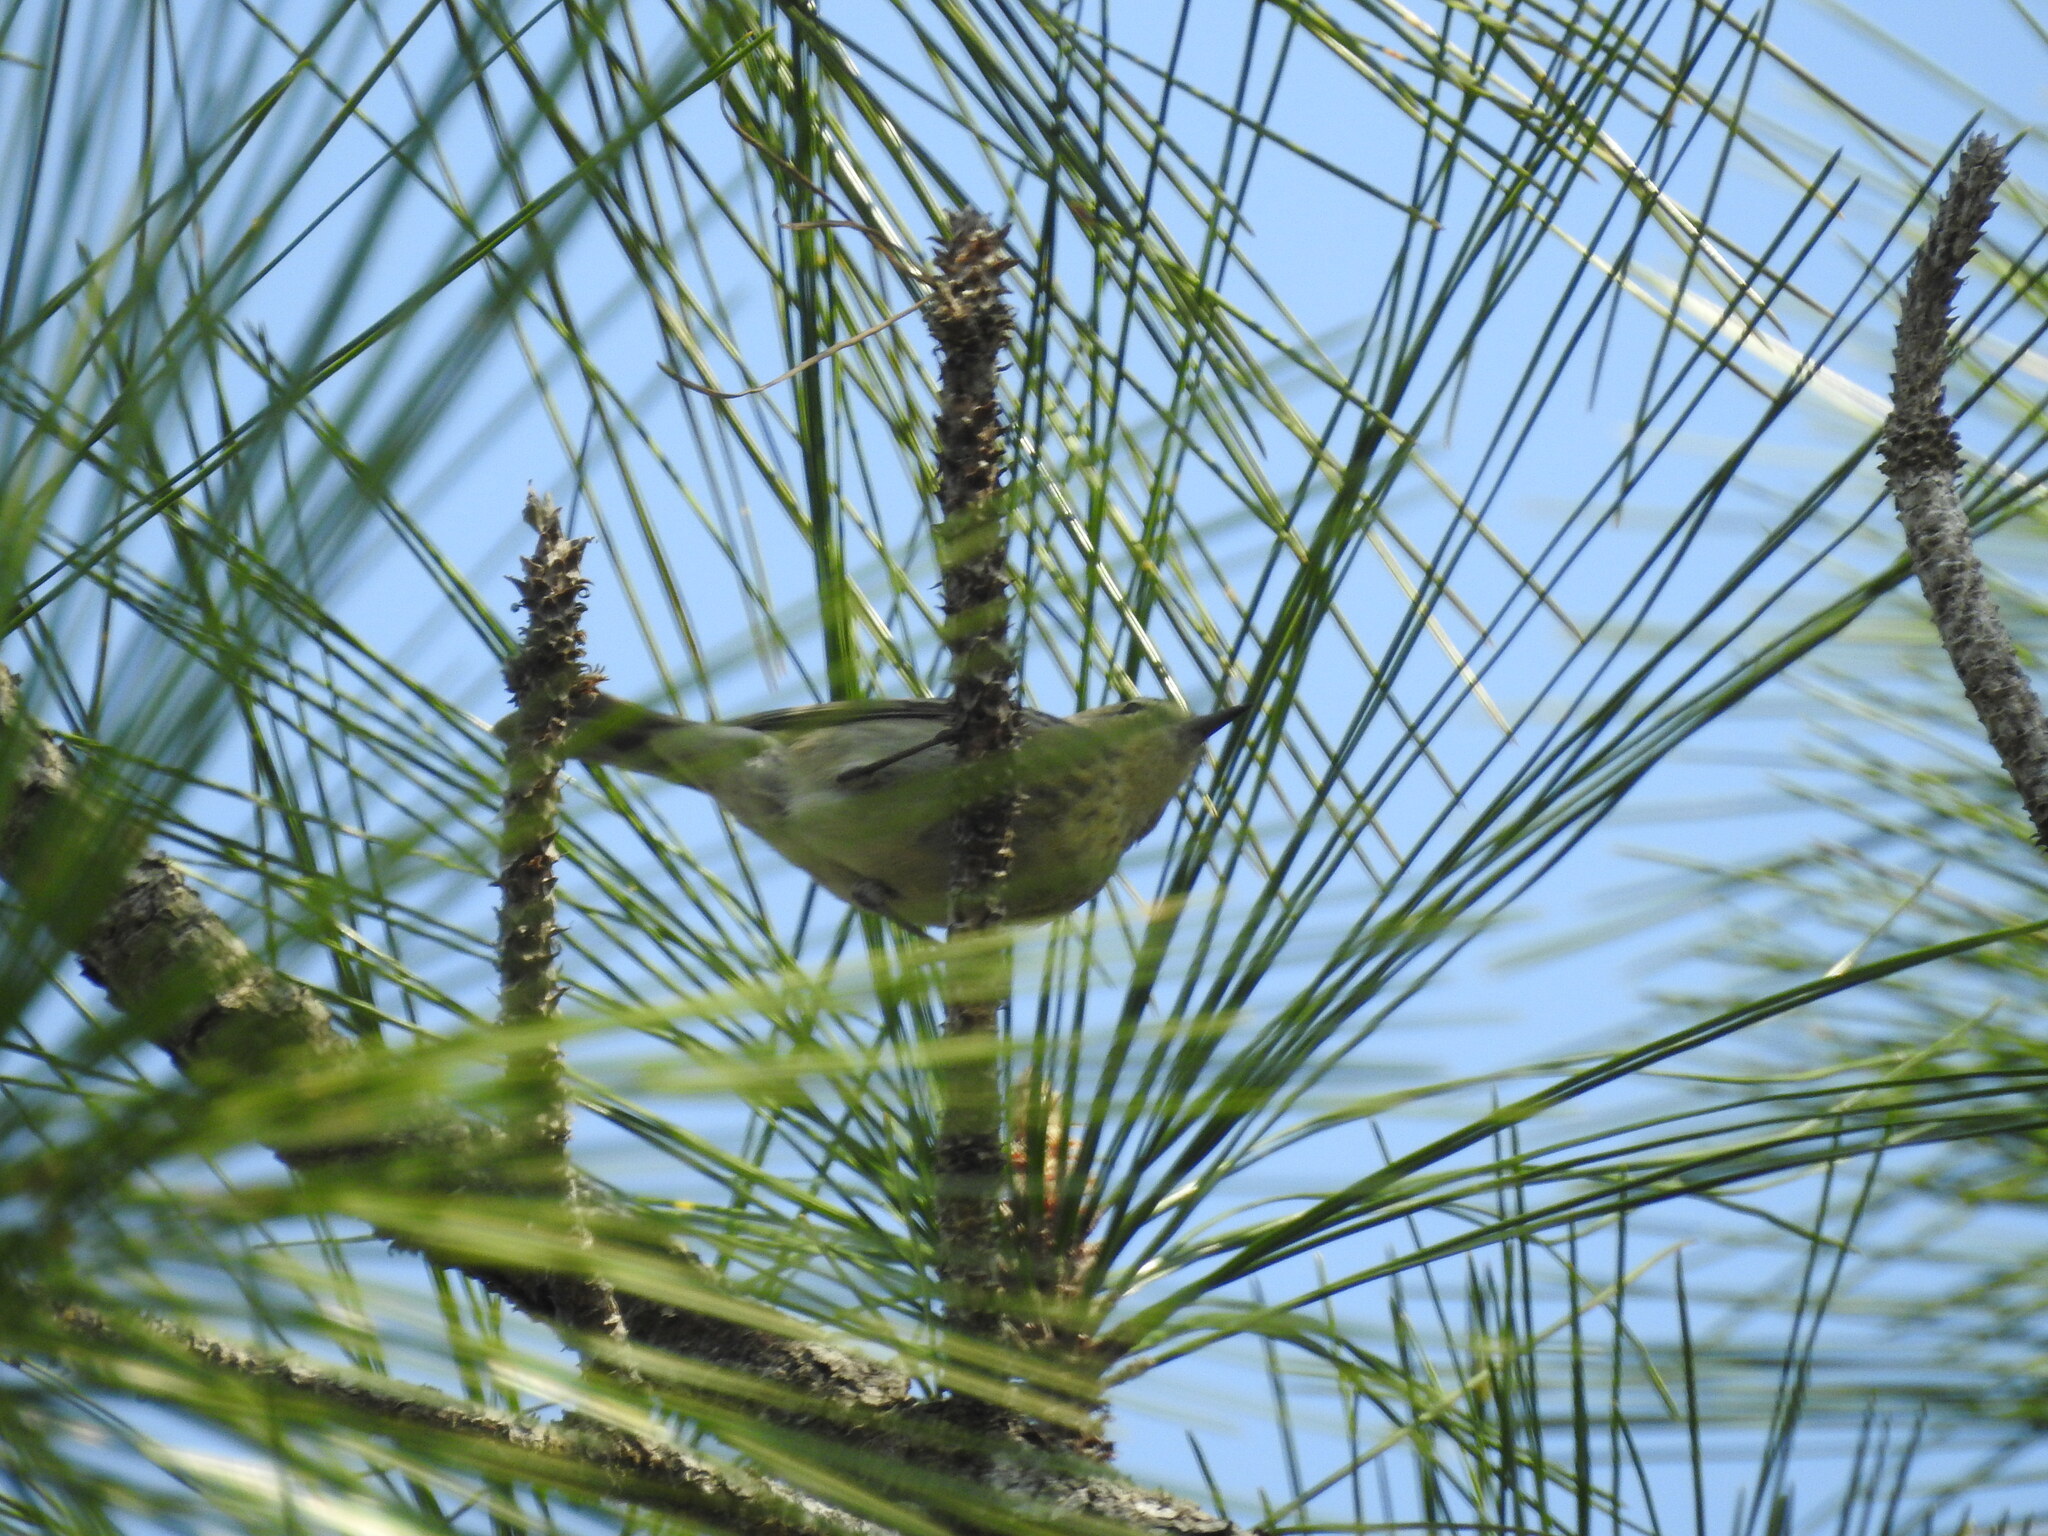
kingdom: Animalia
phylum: Chordata
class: Aves
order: Passeriformes
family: Parulidae
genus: Setophaga
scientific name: Setophaga pinus
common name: Pine warbler
